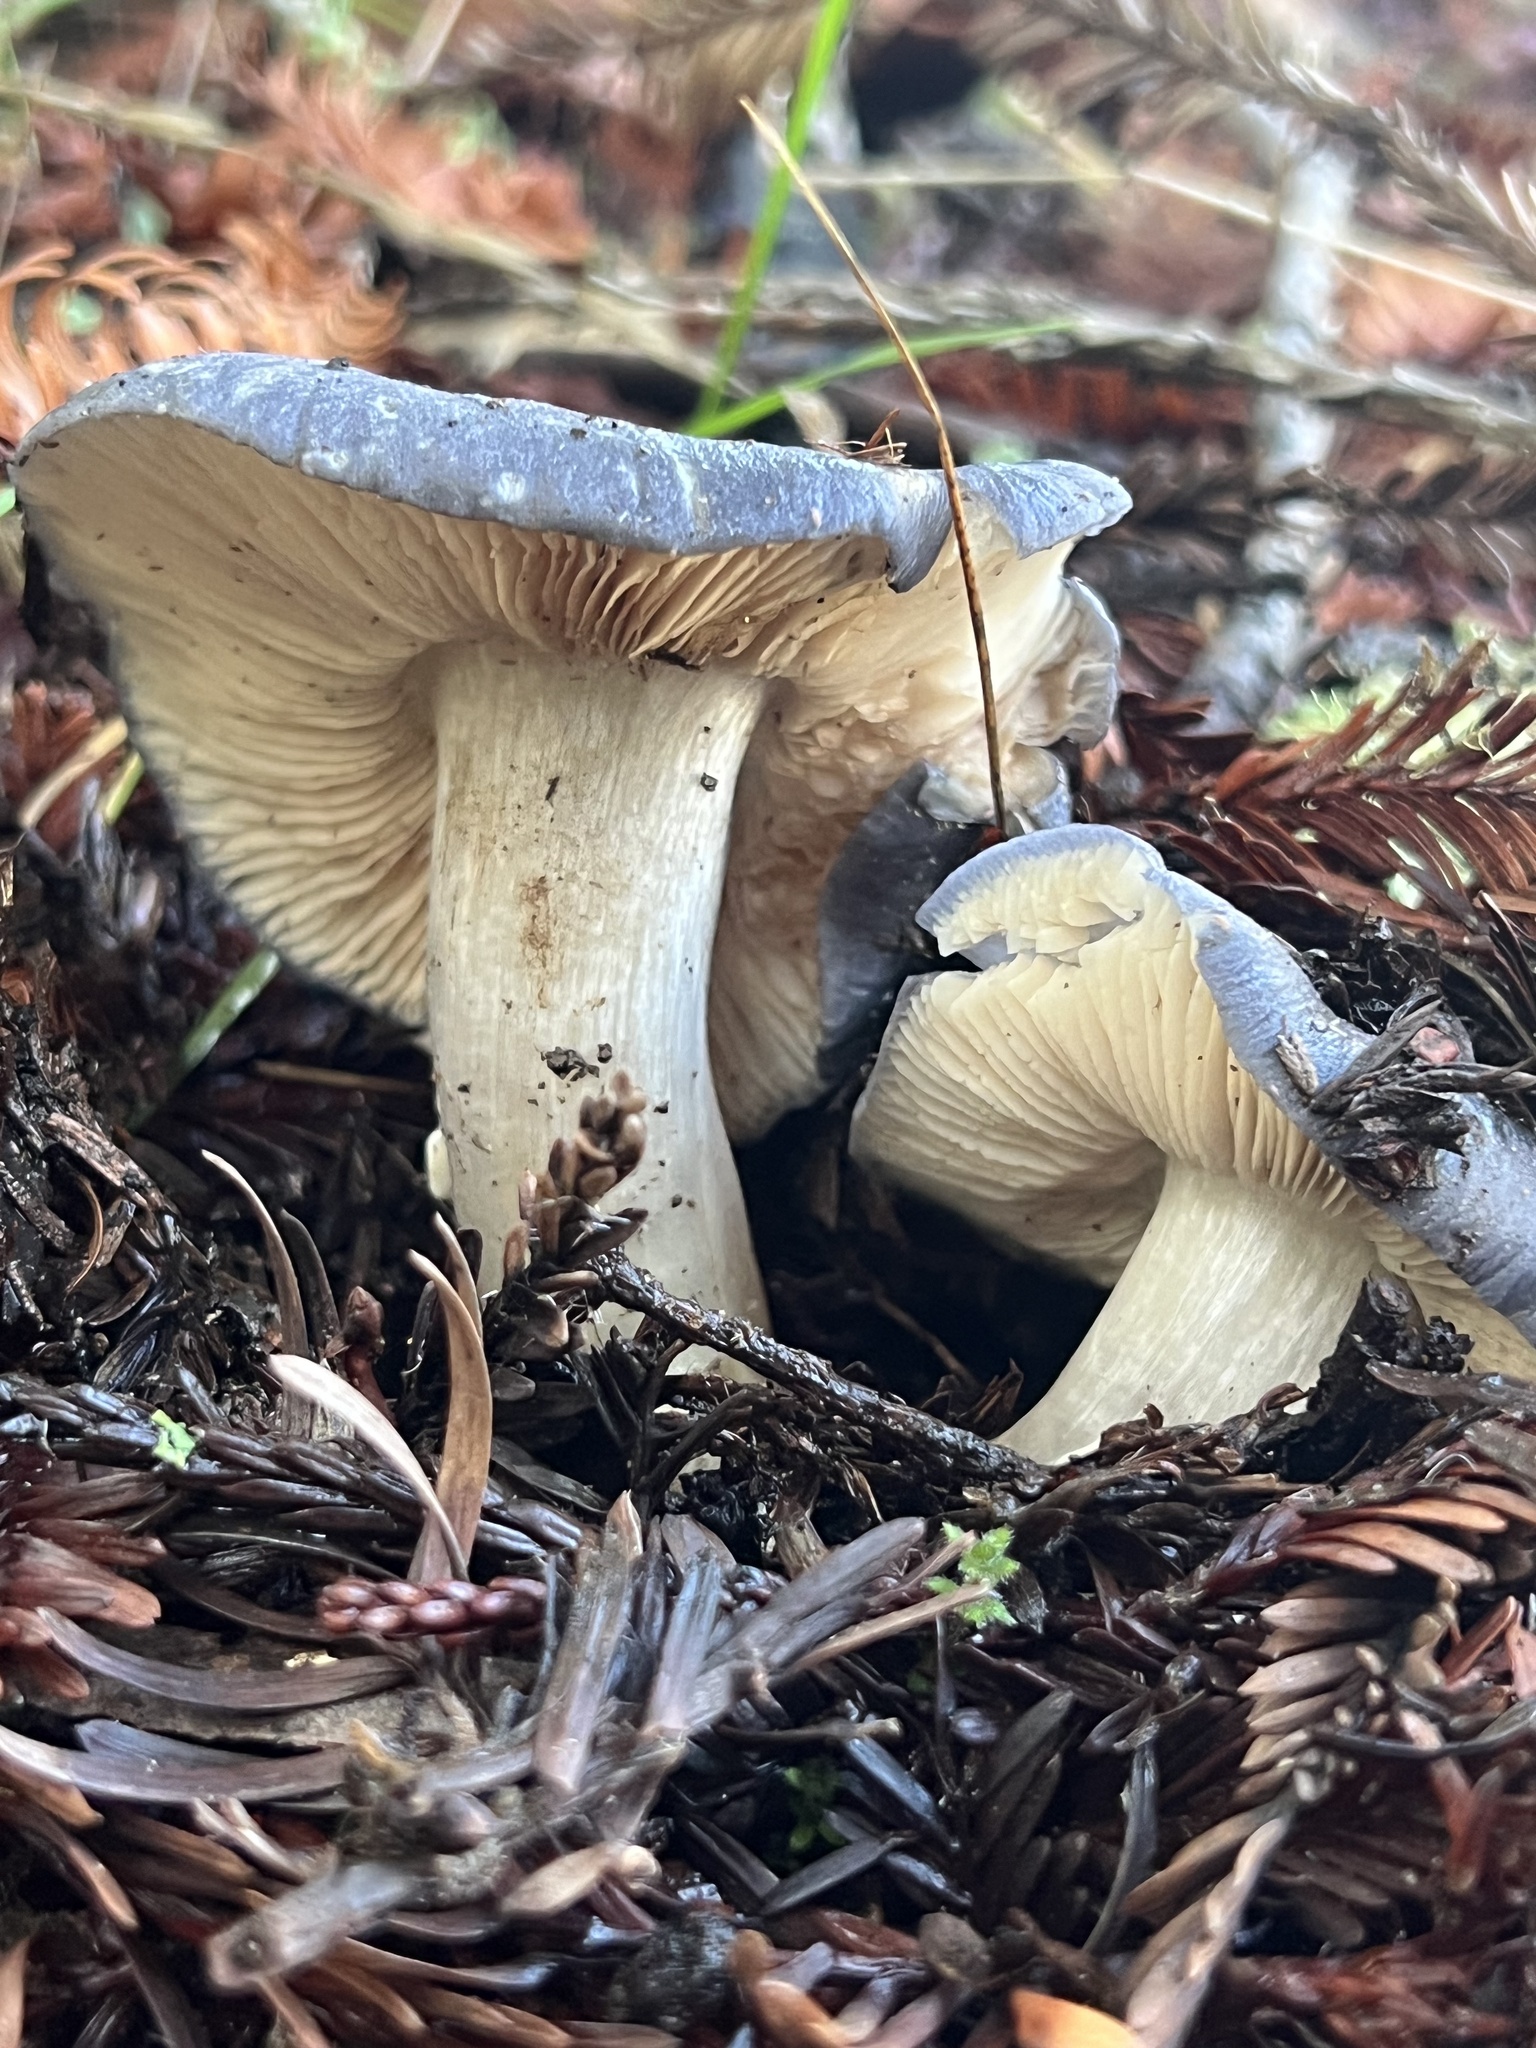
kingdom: Fungi
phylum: Basidiomycota
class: Agaricomycetes
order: Agaricales
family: Entolomataceae
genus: Entoloma
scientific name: Entoloma medianox
